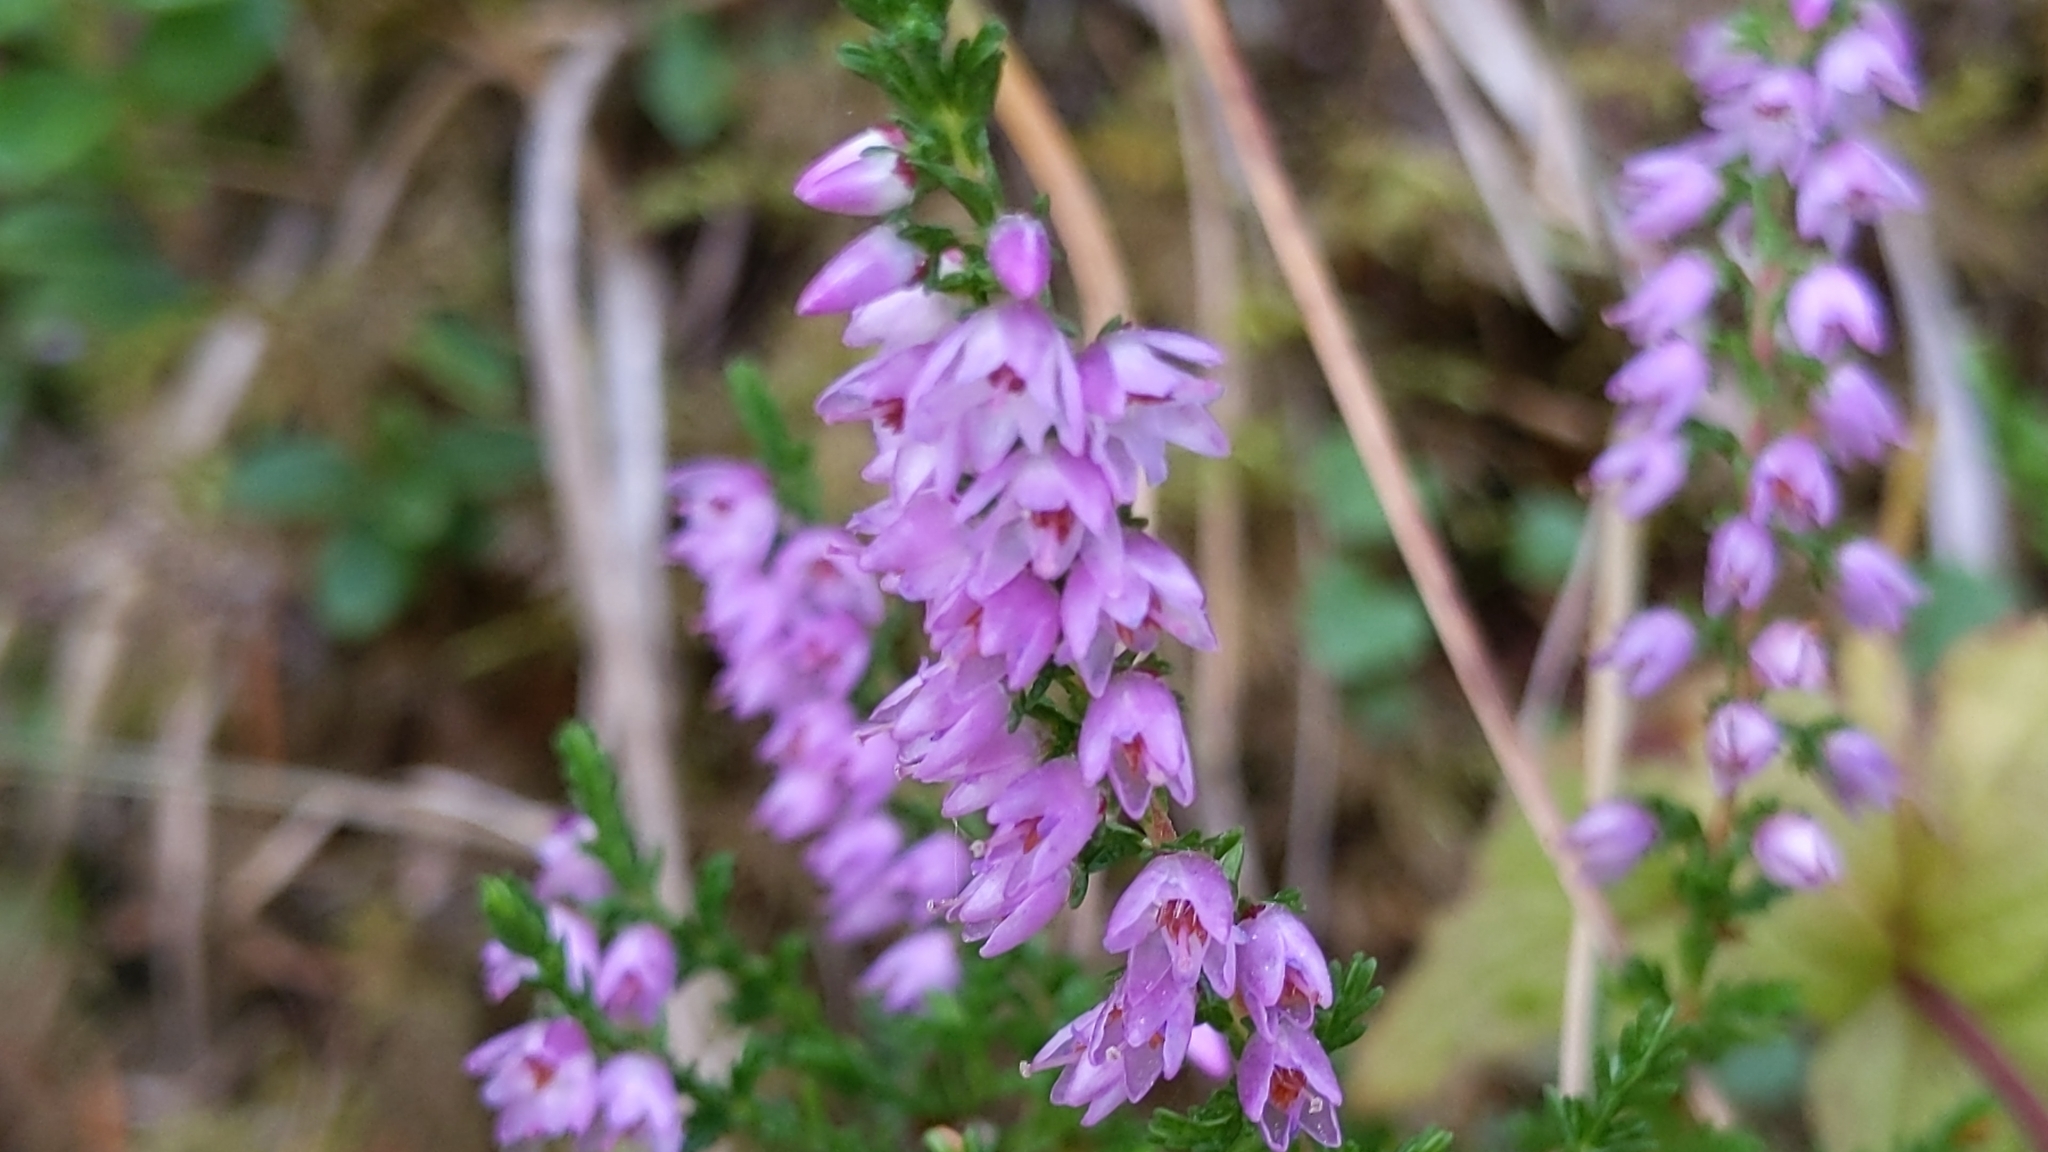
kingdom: Plantae
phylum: Tracheophyta
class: Magnoliopsida
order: Ericales
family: Ericaceae
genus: Calluna
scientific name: Calluna vulgaris
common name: Heather
